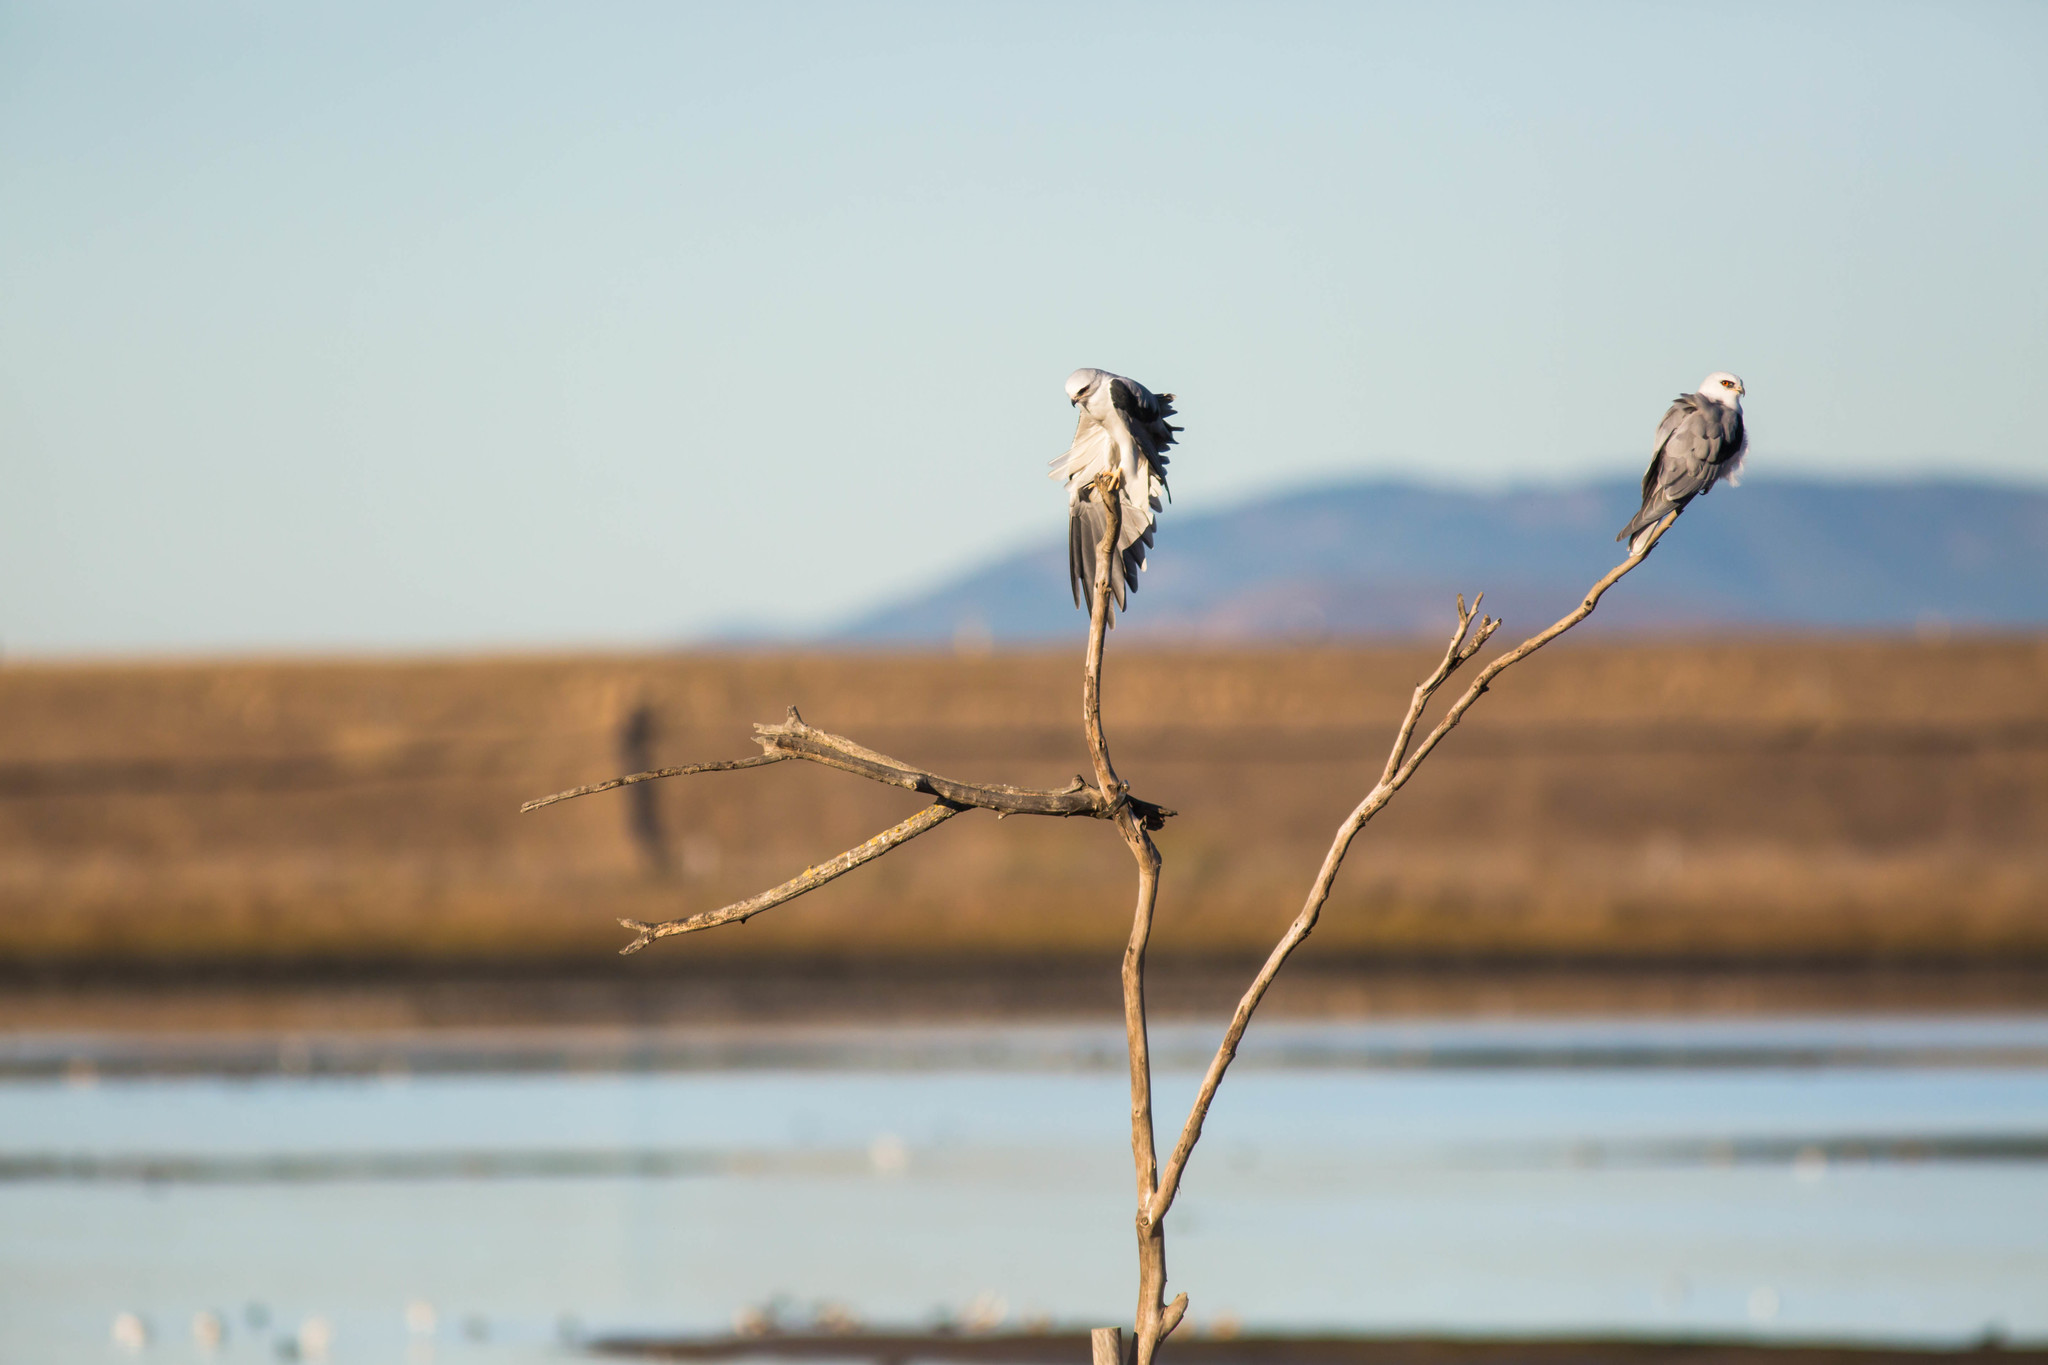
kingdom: Animalia
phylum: Chordata
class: Aves
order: Accipitriformes
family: Accipitridae
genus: Elanus
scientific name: Elanus leucurus
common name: White-tailed kite
